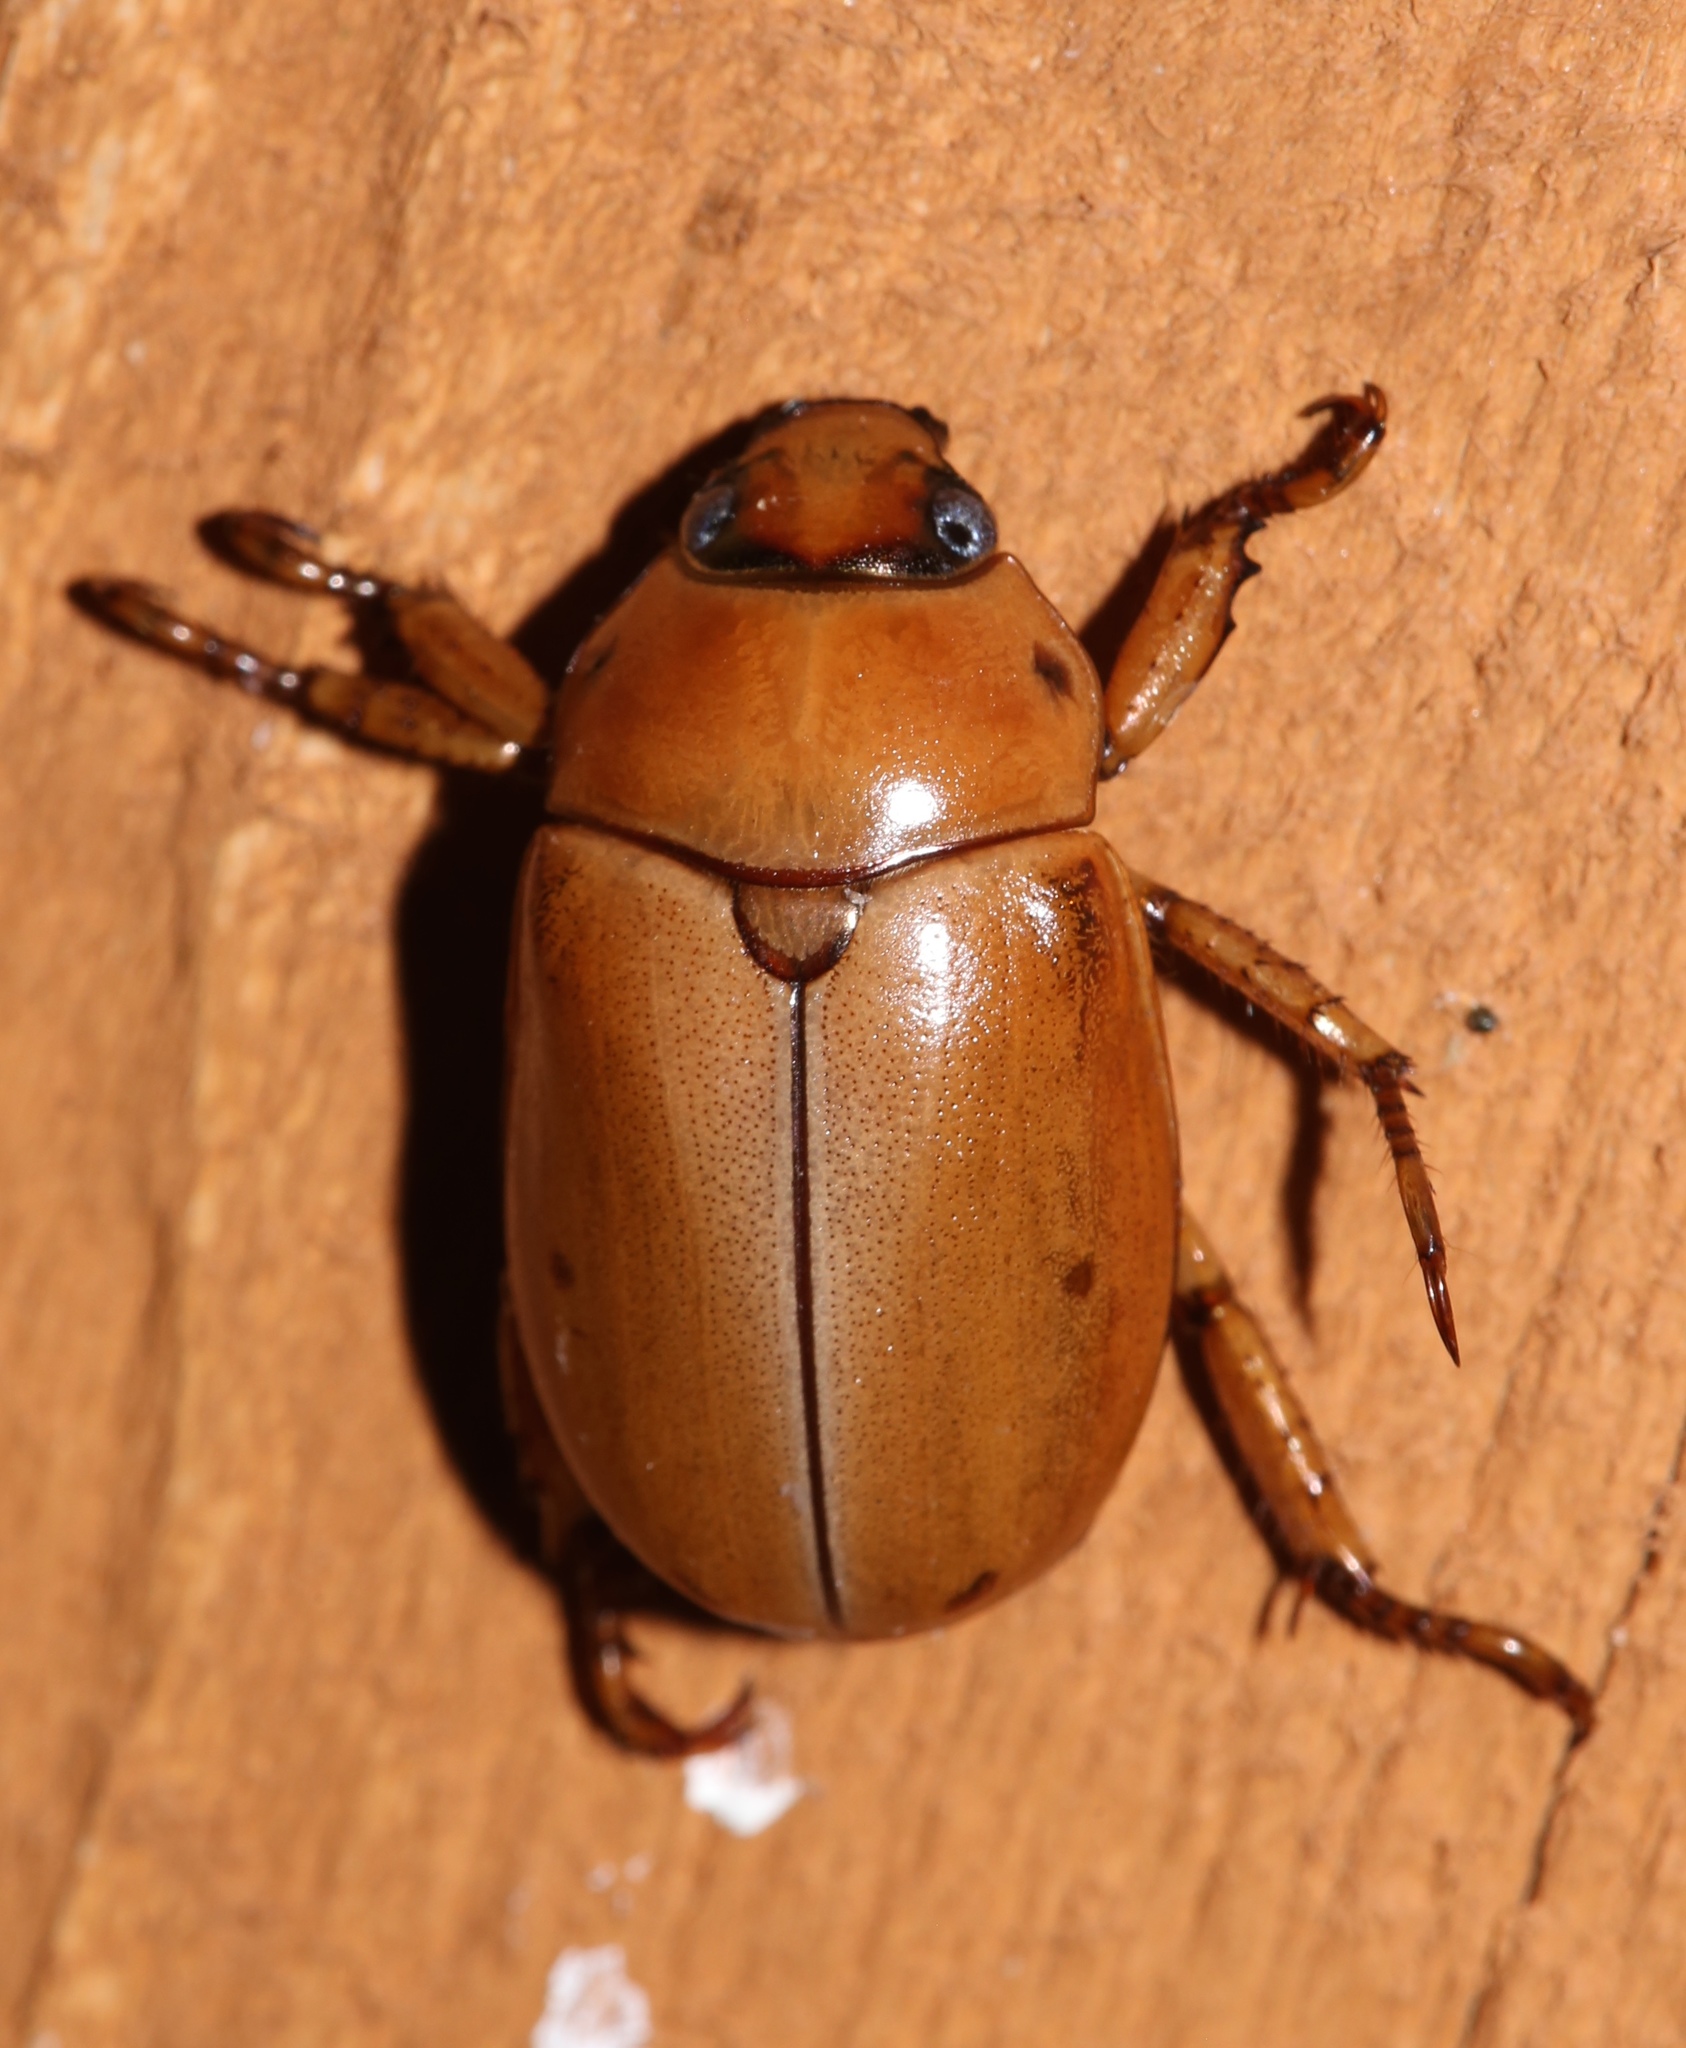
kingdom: Animalia
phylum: Arthropoda
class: Insecta
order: Coleoptera
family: Scarabaeidae
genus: Pelidnota
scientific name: Pelidnota punctata
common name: Grapevine beetle
